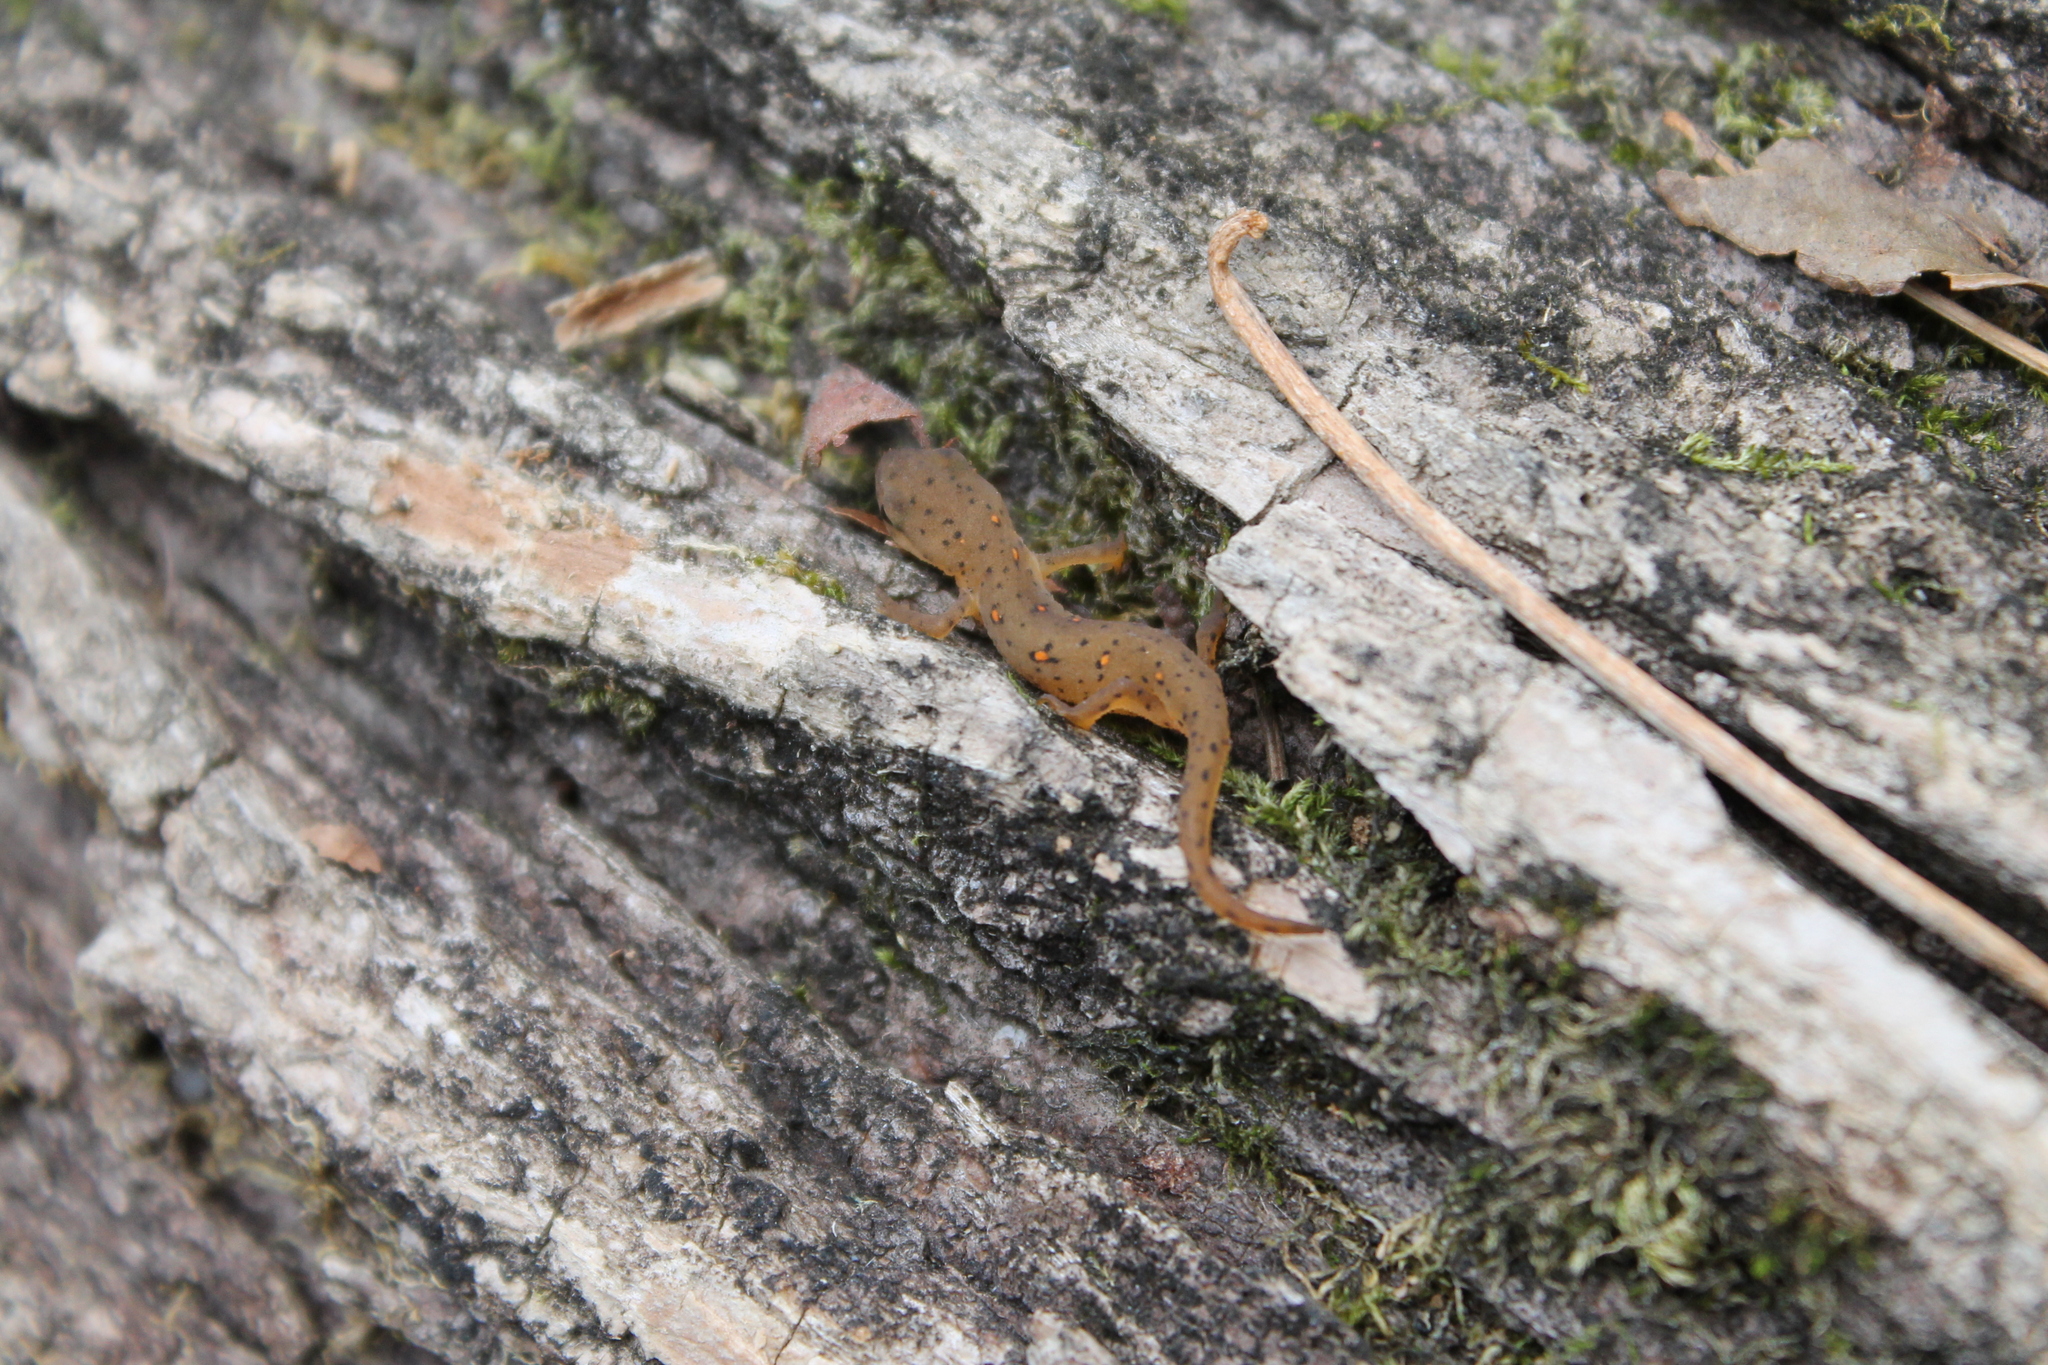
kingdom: Animalia
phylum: Chordata
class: Amphibia
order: Caudata
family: Salamandridae
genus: Notophthalmus
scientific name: Notophthalmus viridescens
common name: Eastern newt
